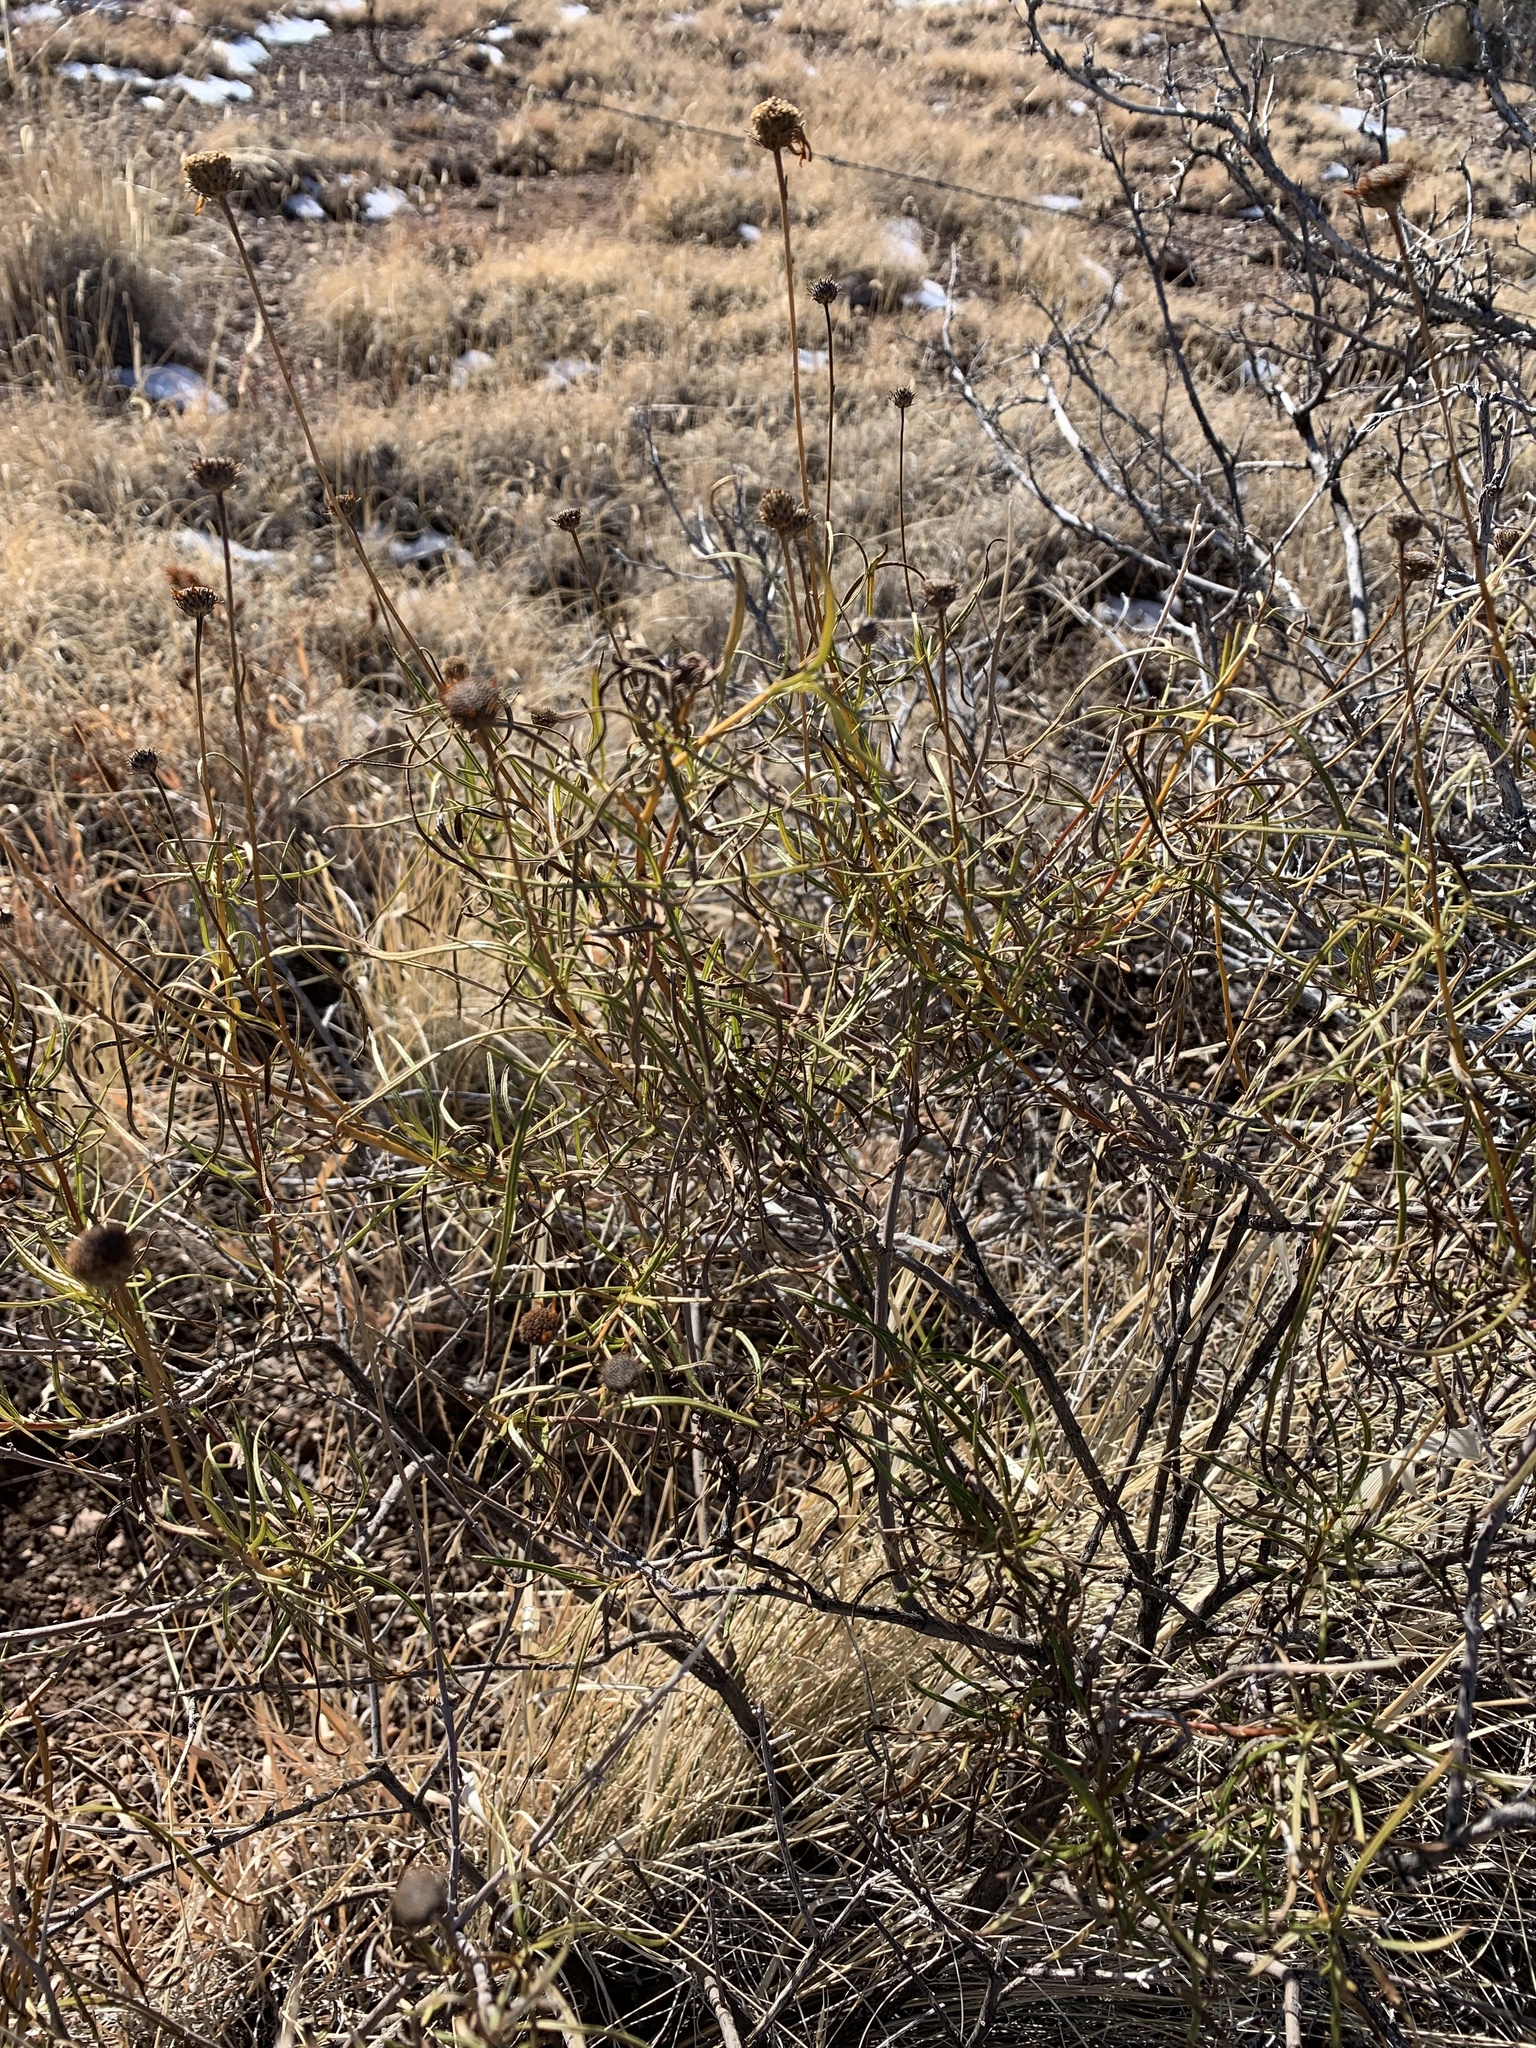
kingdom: Plantae
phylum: Tracheophyta
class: Magnoliopsida
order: Asterales
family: Asteraceae
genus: Sidneya
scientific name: Sidneya tenuifolia
